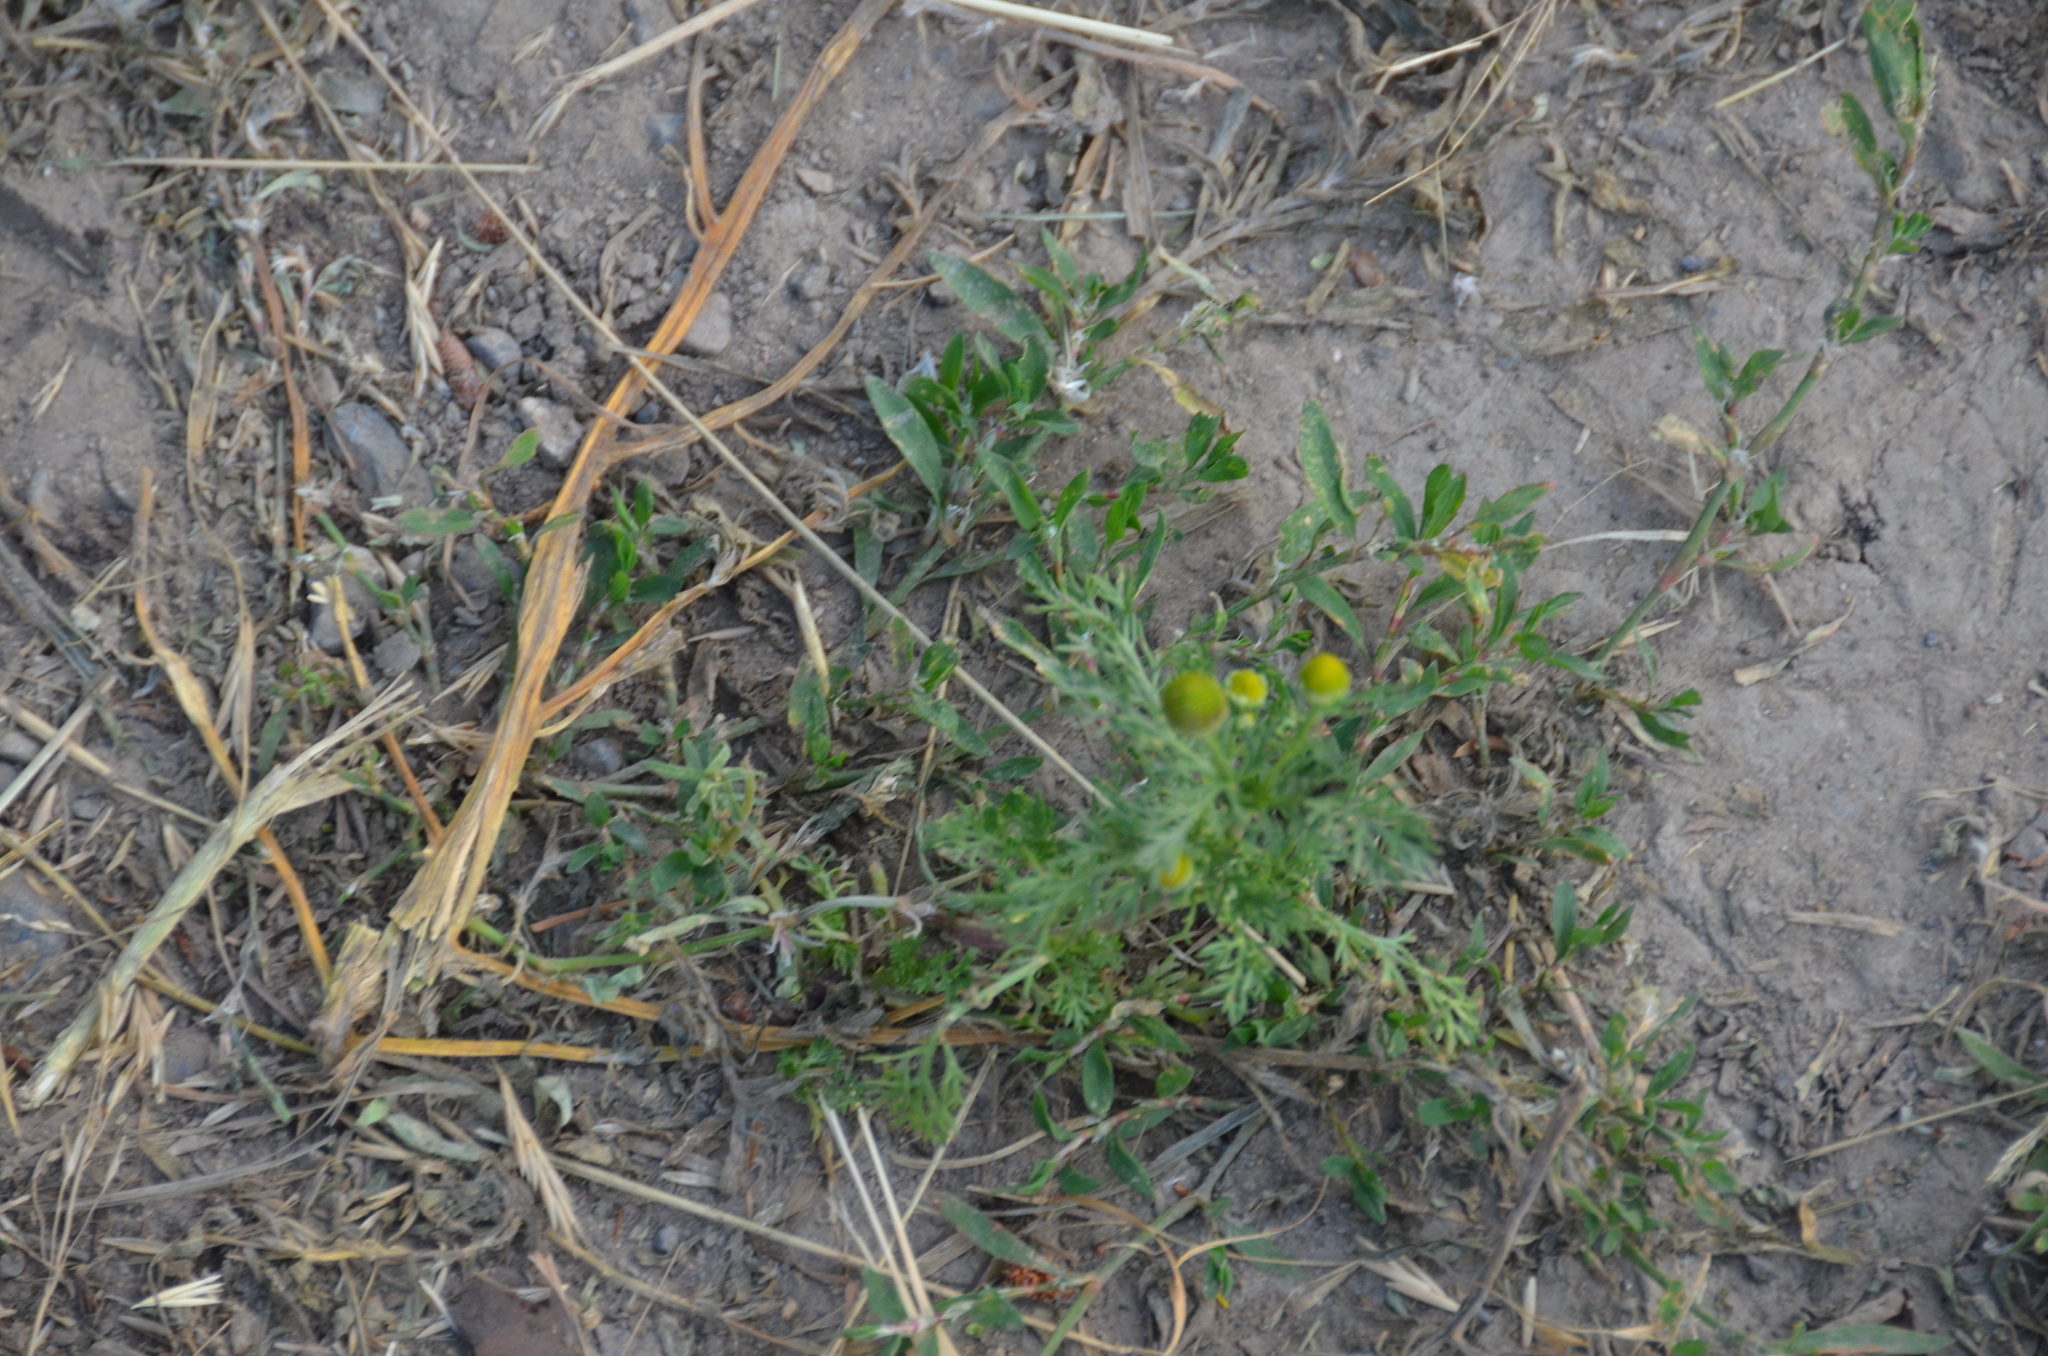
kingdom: Plantae
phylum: Tracheophyta
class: Magnoliopsida
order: Asterales
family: Asteraceae
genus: Matricaria
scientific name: Matricaria discoidea
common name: Disc mayweed
